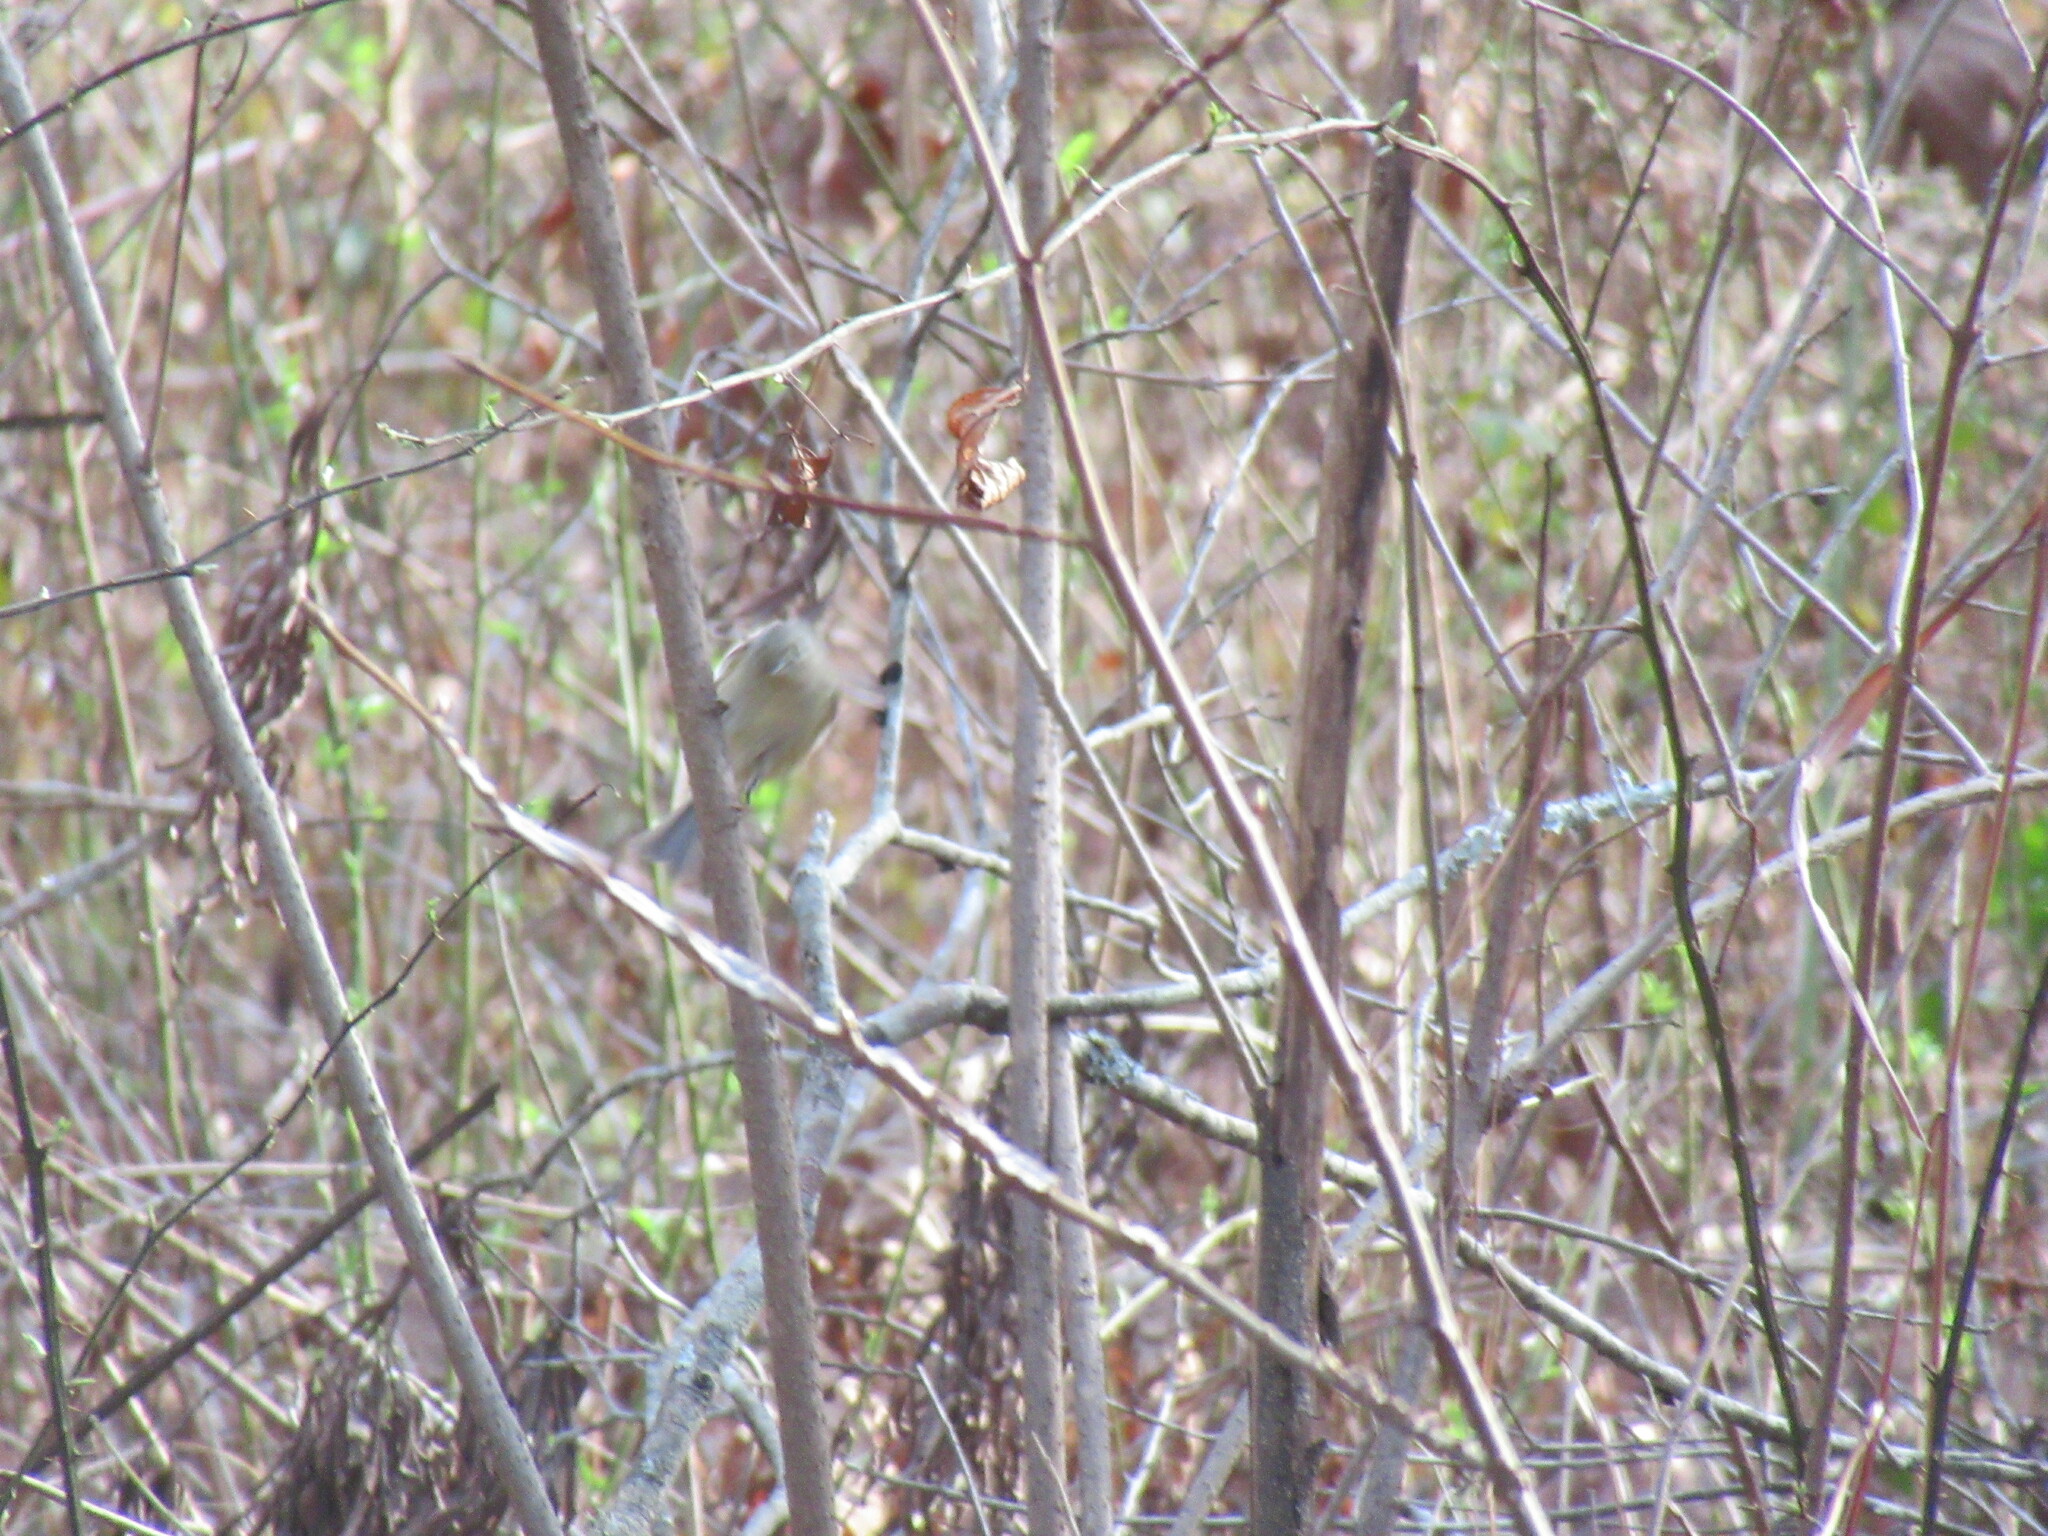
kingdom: Animalia
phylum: Chordata
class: Aves
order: Passeriformes
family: Regulidae
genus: Regulus
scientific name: Regulus calendula
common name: Ruby-crowned kinglet
